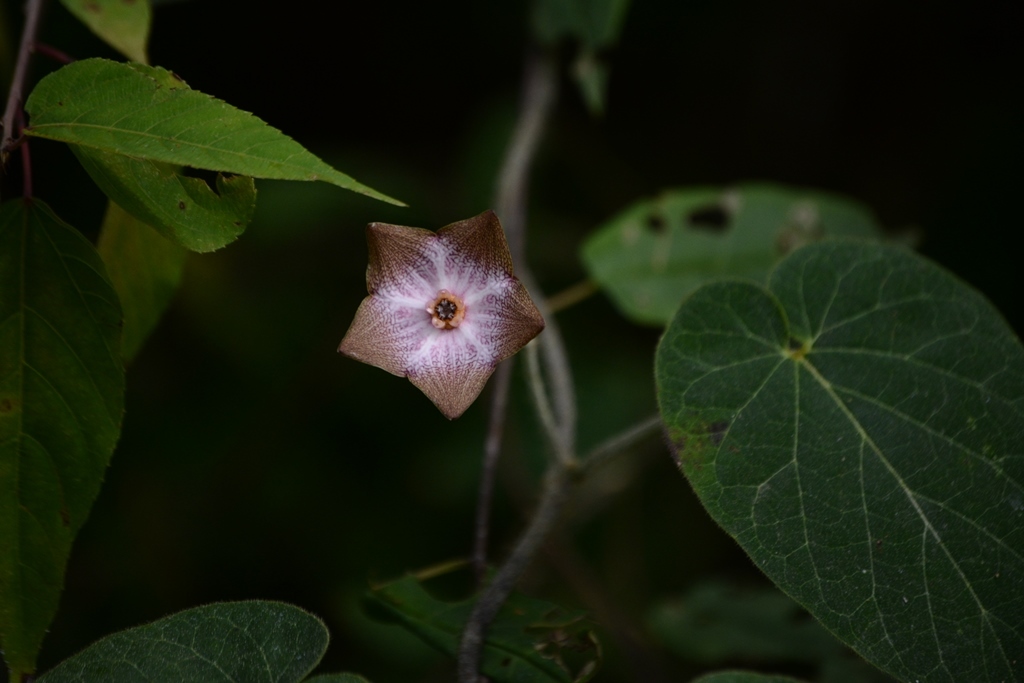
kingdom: Plantae
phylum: Tracheophyta
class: Magnoliopsida
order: Gentianales
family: Apocynaceae
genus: Polystemma
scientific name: Polystemma guatemalense
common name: Arborescente rattan
